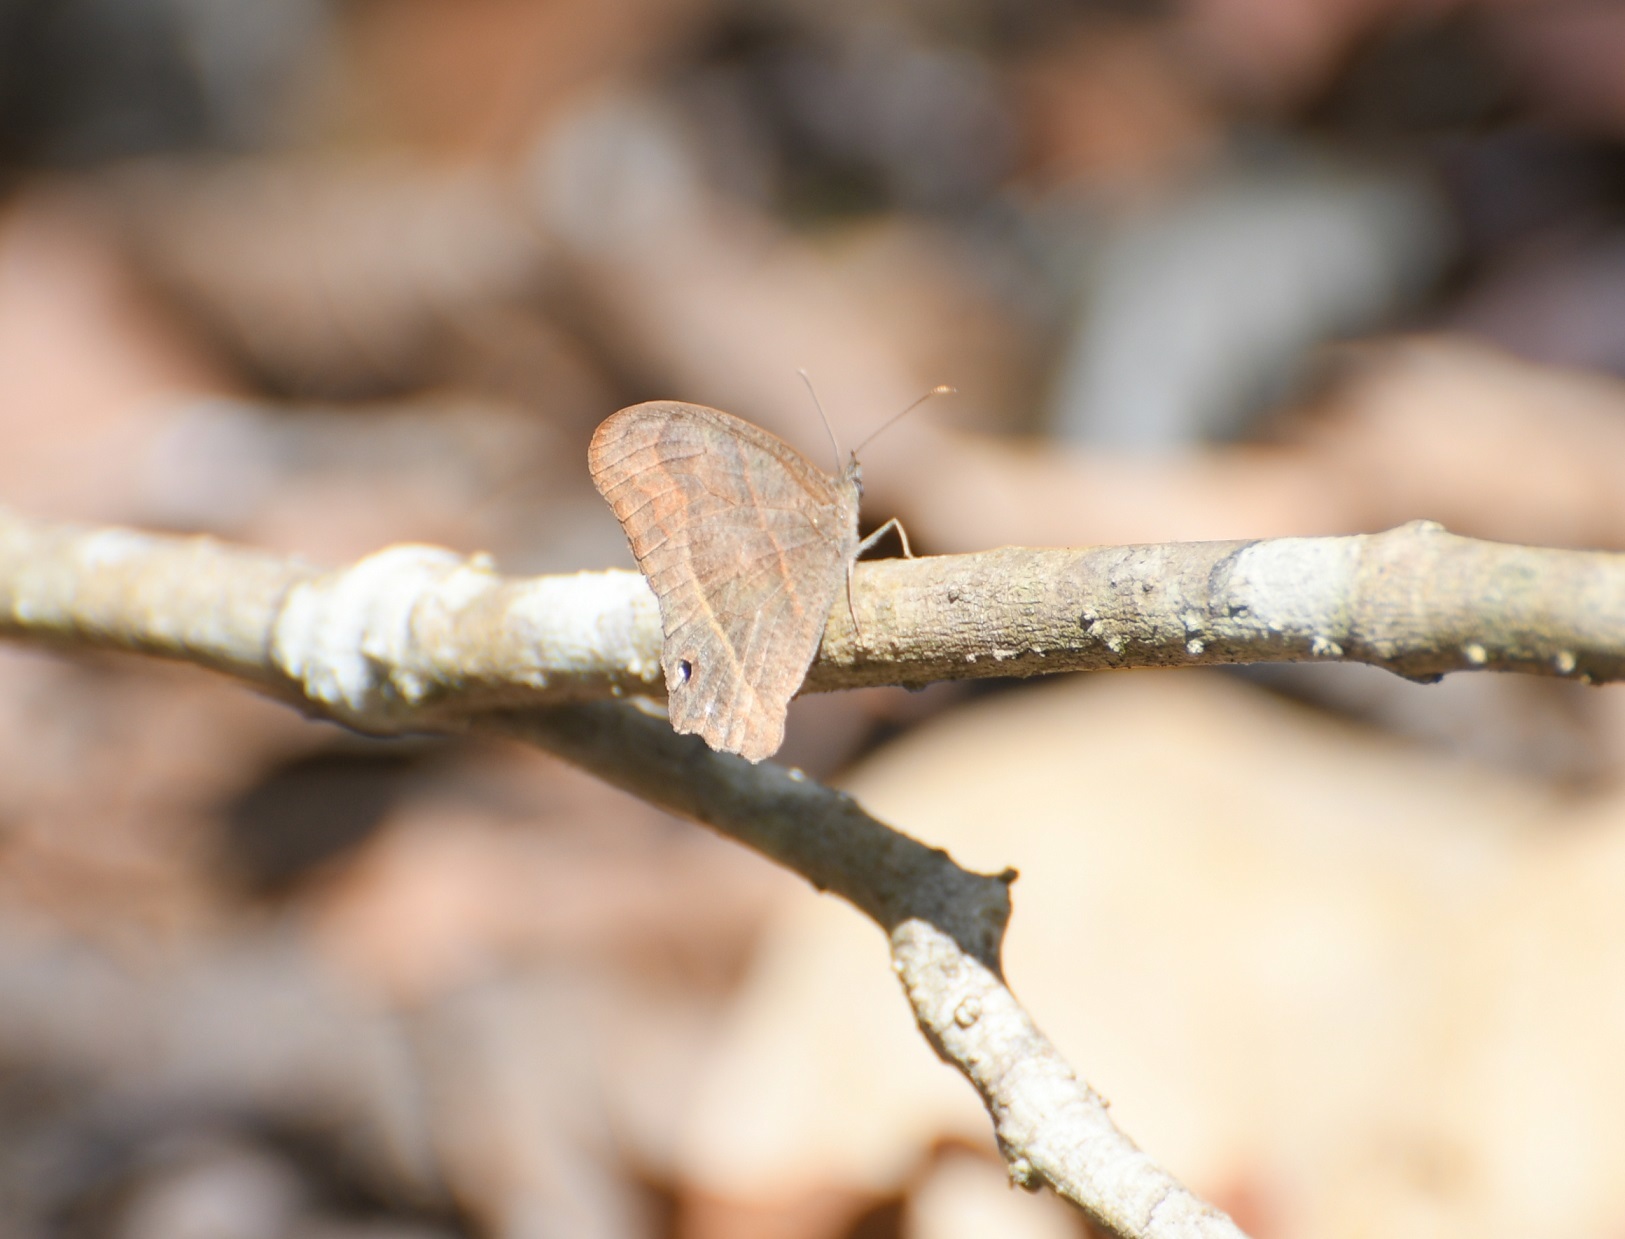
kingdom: Animalia
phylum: Arthropoda
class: Insecta
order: Lepidoptera
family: Nymphalidae
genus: Euptychia
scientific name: Euptychia Cyllopsis hedemanni
